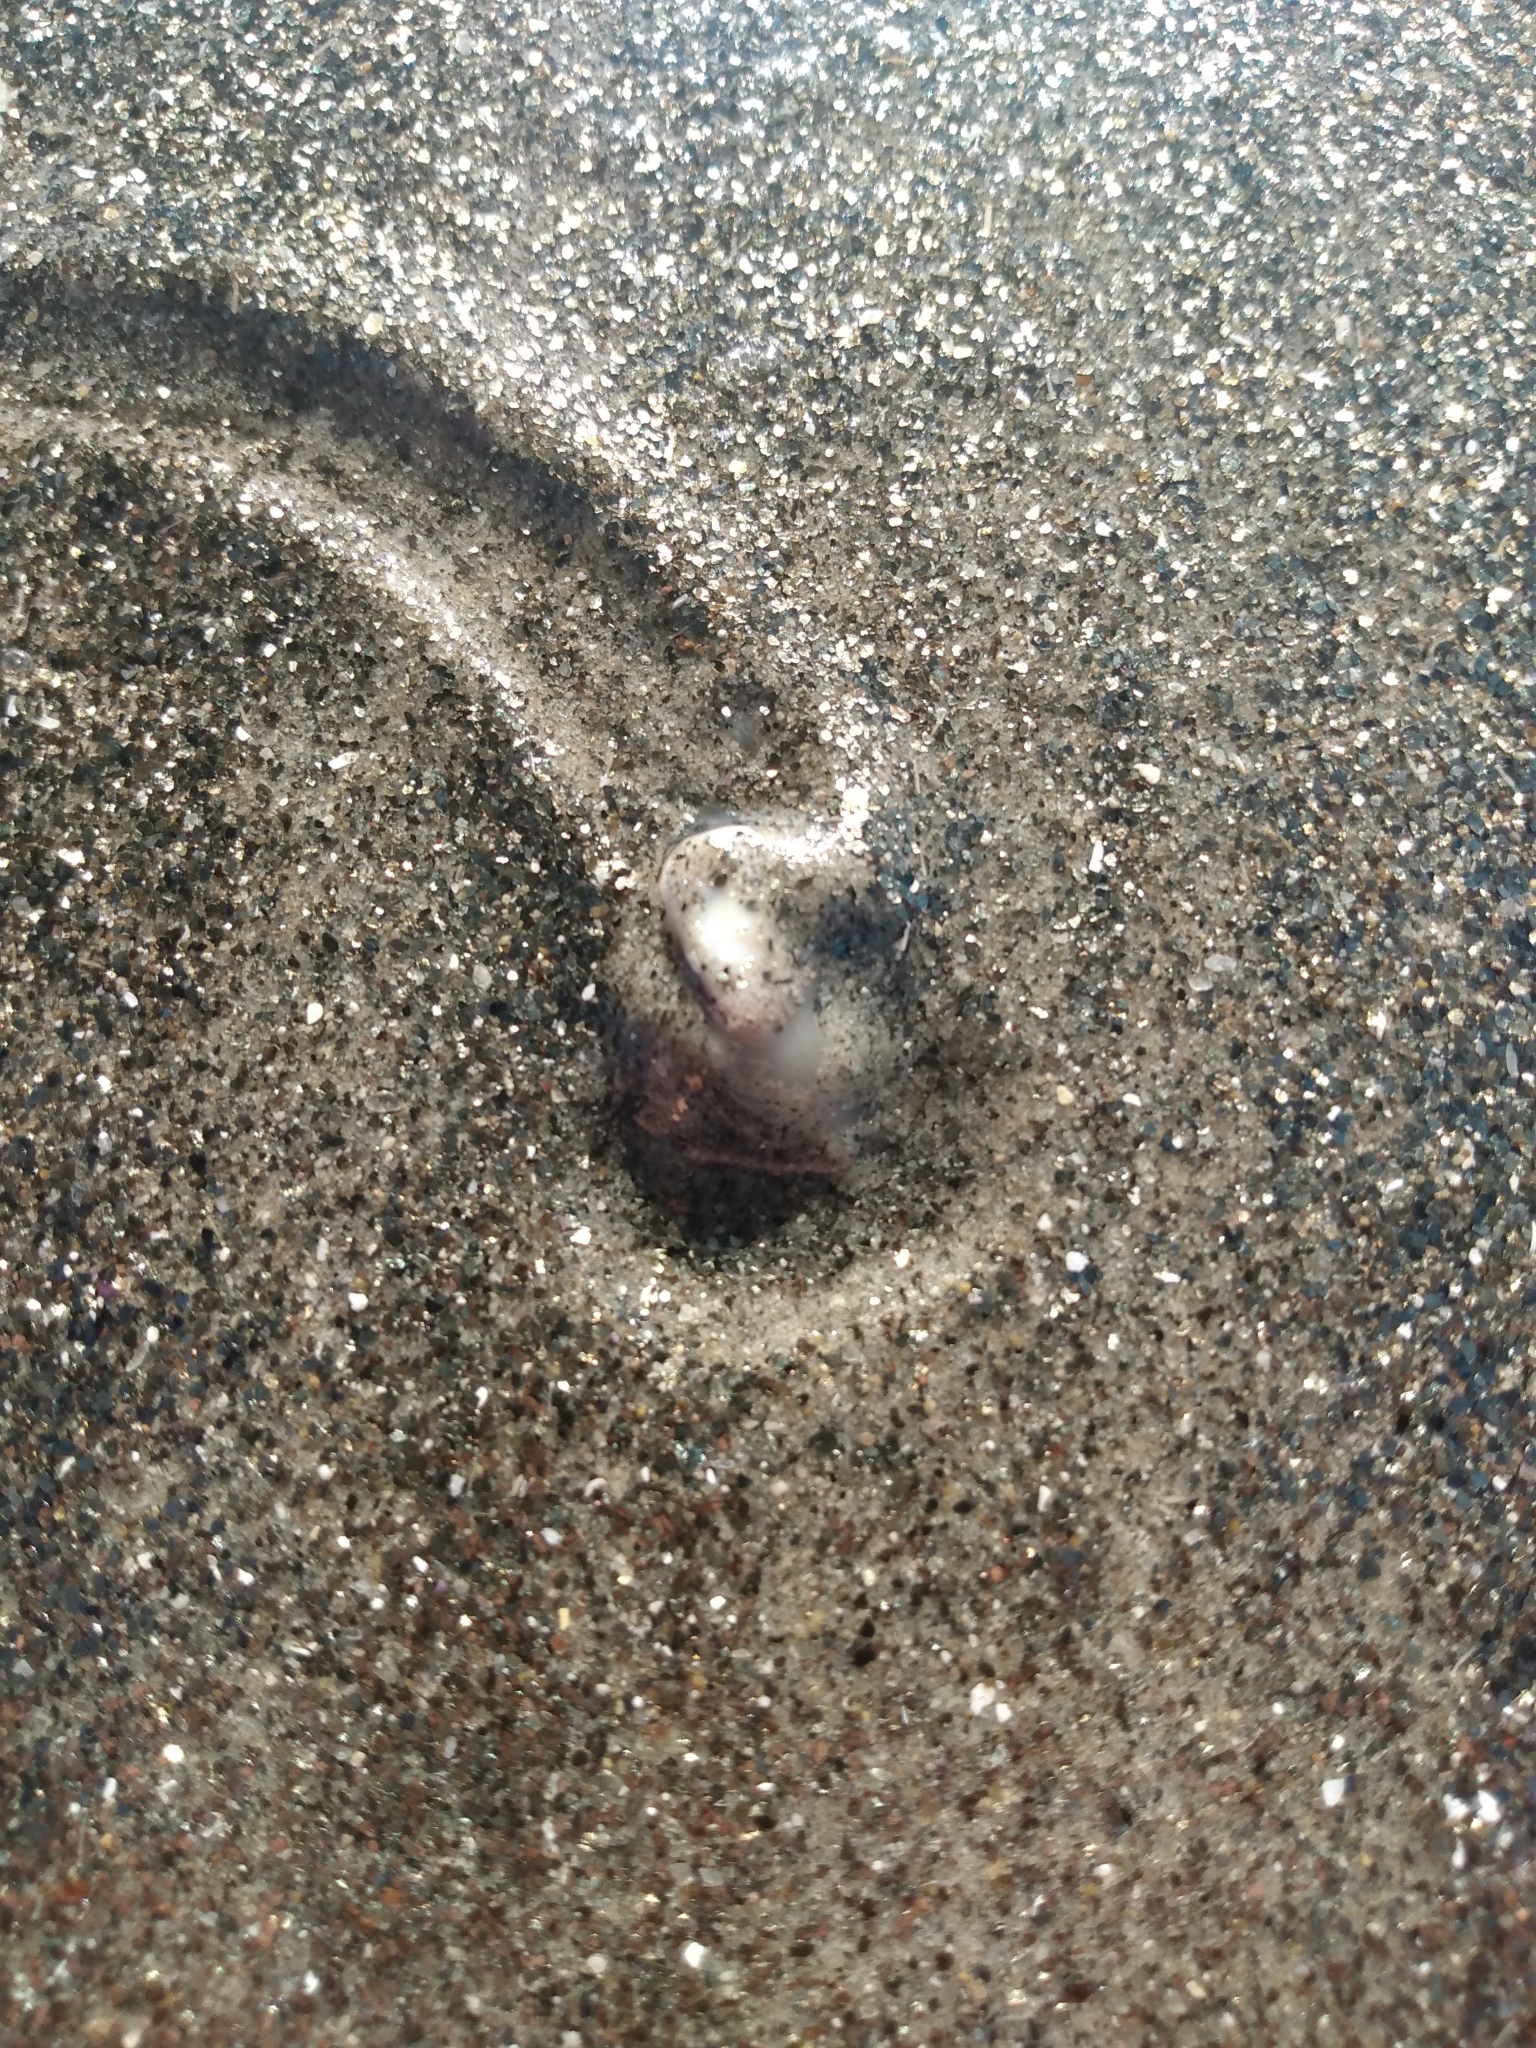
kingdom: Animalia
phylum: Mollusca
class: Bivalvia
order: Cardiida
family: Donacidae
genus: Donax
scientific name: Donax gouldii
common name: Gould beanclam
